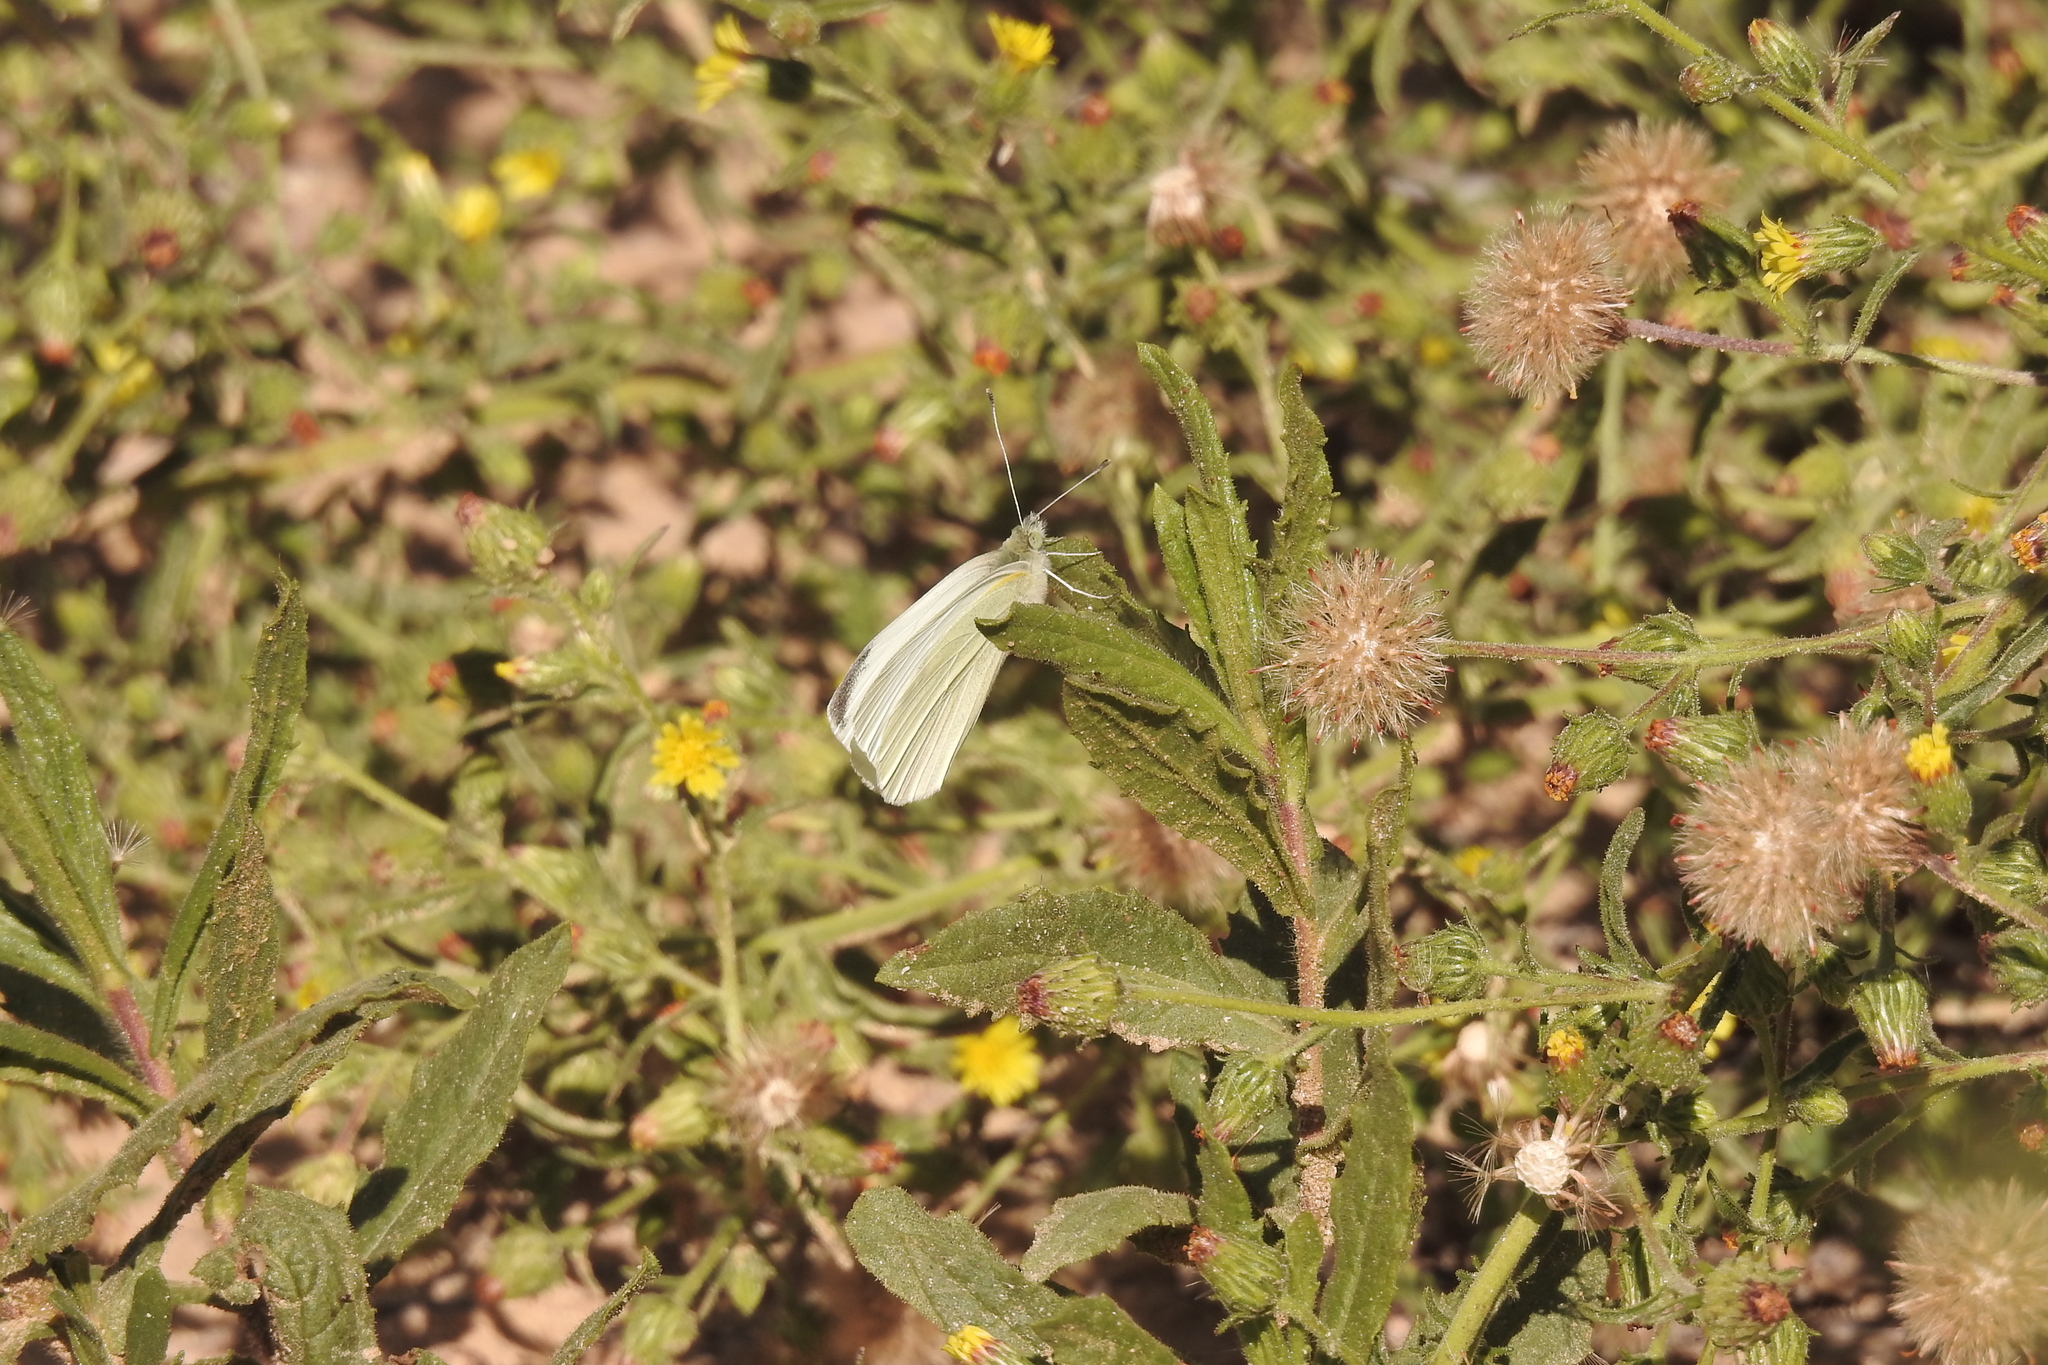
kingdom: Animalia
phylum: Arthropoda
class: Insecta
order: Lepidoptera
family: Pieridae
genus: Pieris
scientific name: Pieris rapae
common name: Small white
